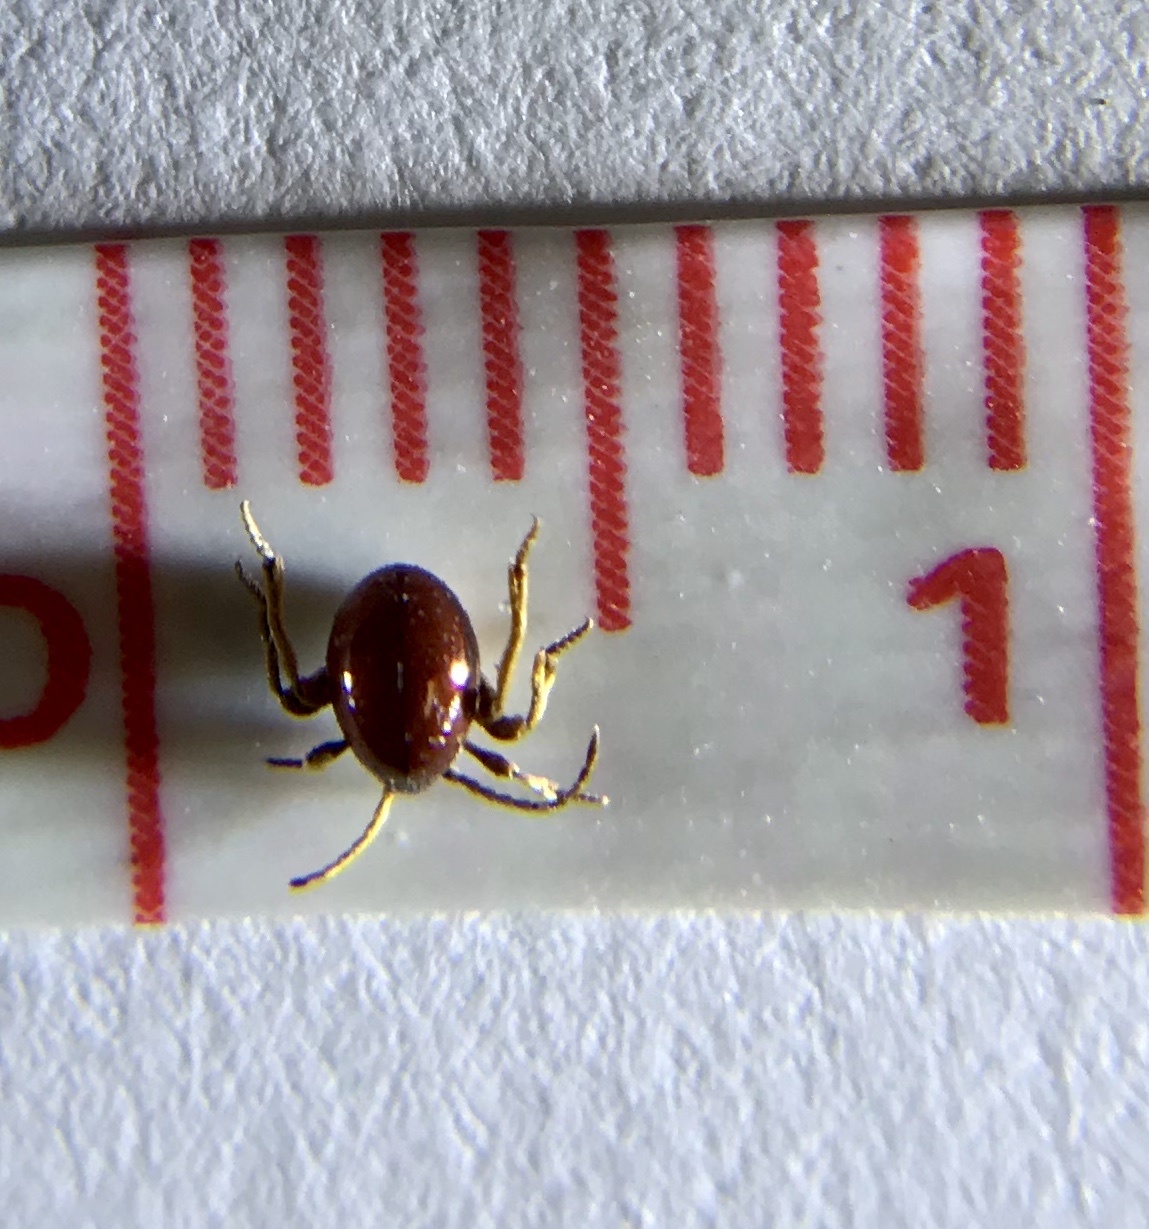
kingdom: Animalia
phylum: Arthropoda
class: Insecta
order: Coleoptera
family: Ptinidae
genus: Gibbium
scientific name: Gibbium aequinoctiale
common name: Smooth spider beetle
